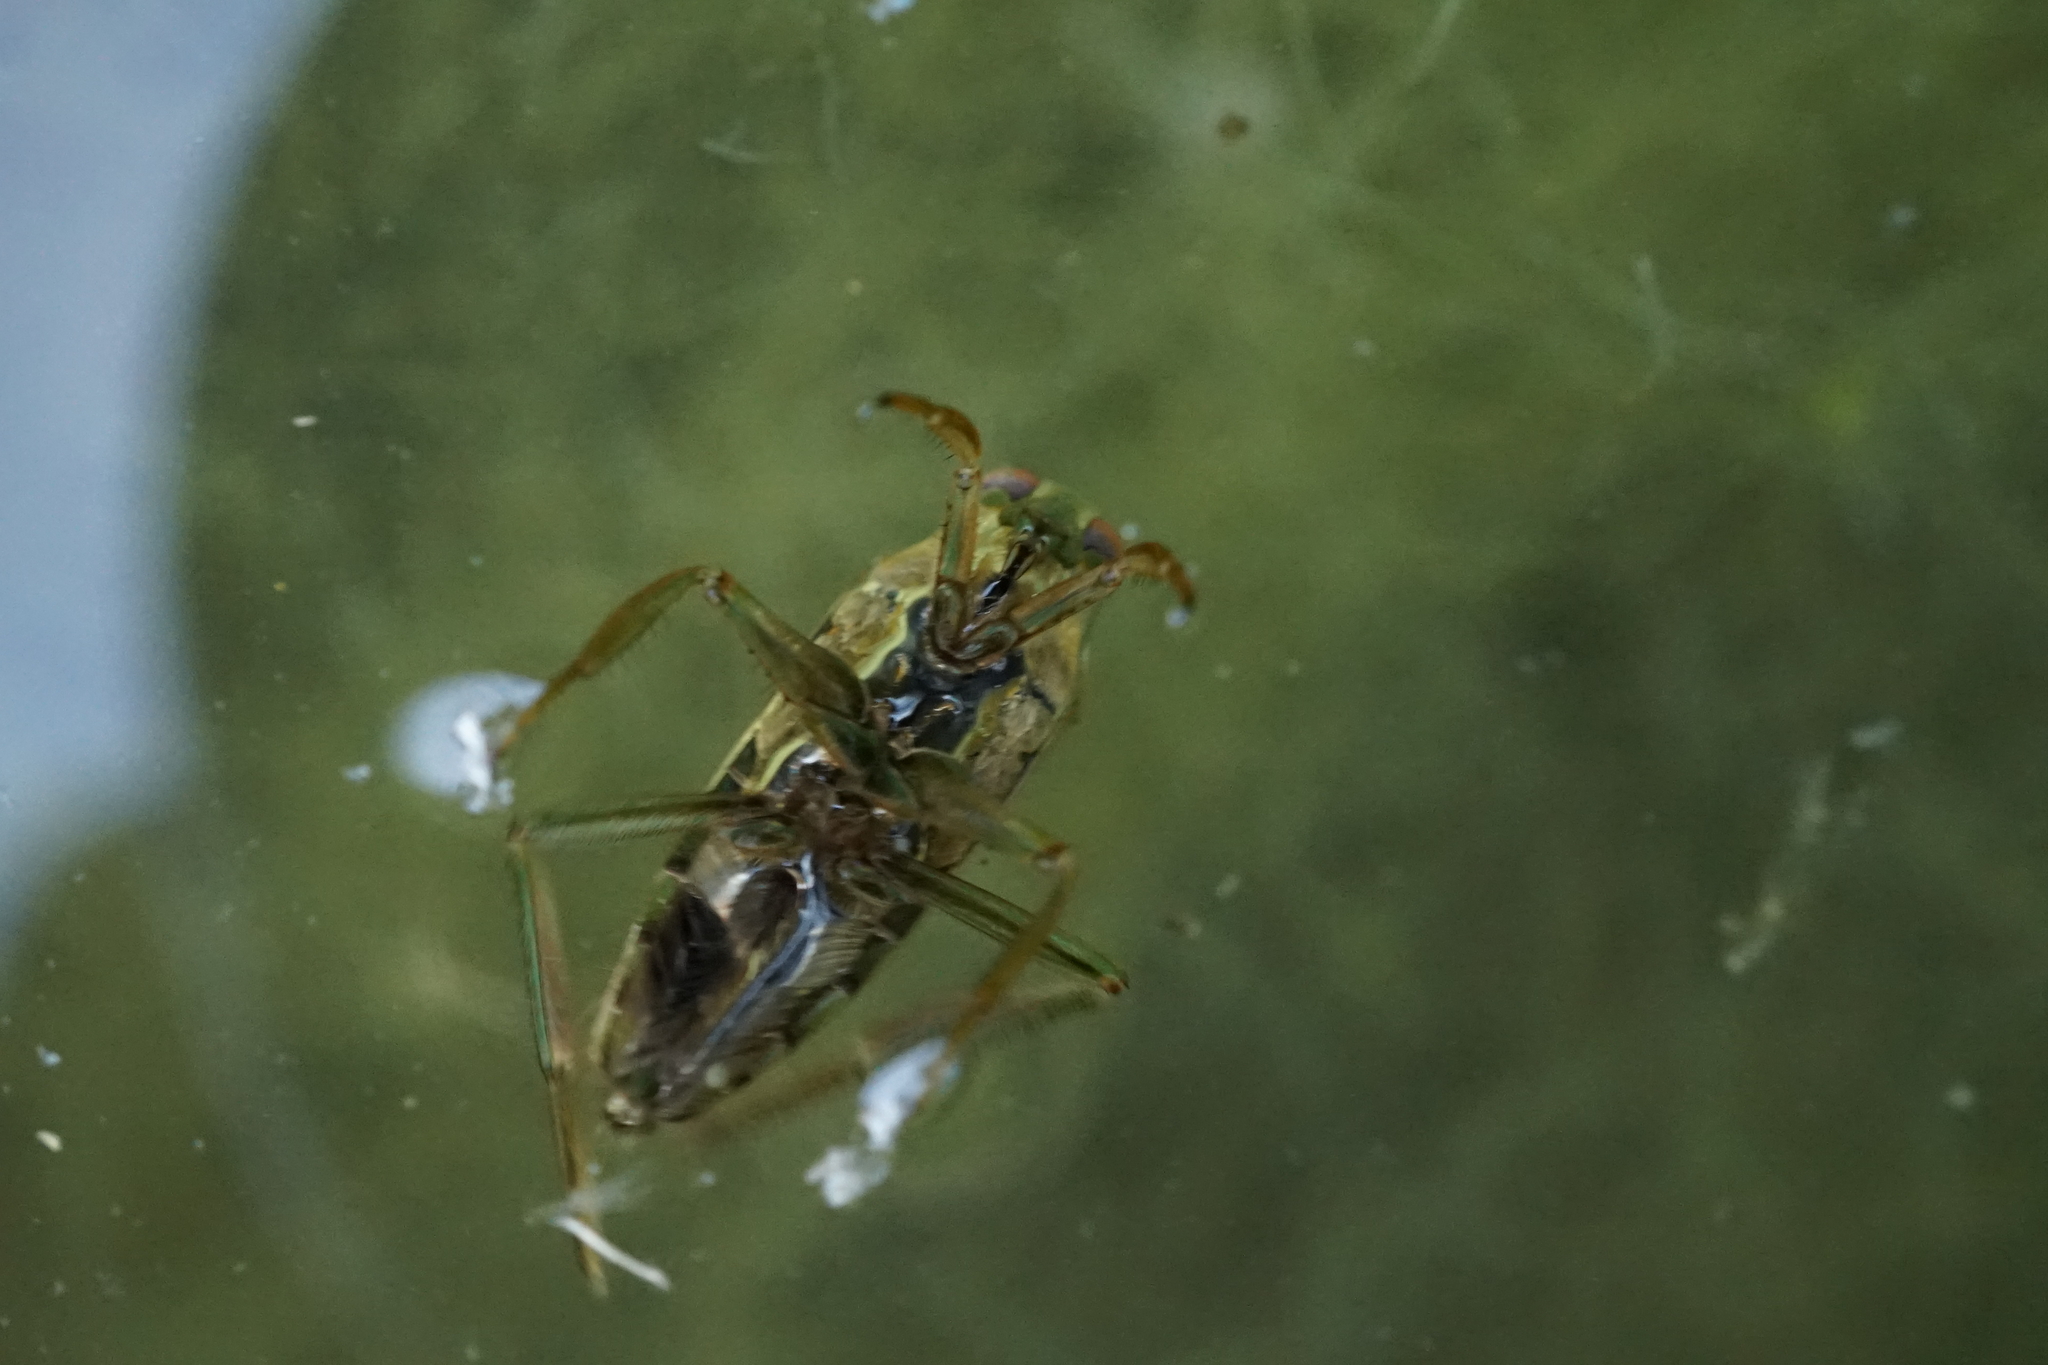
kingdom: Animalia
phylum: Arthropoda
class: Insecta
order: Hemiptera
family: Notonectidae
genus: Notonecta
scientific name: Notonecta triguttata
